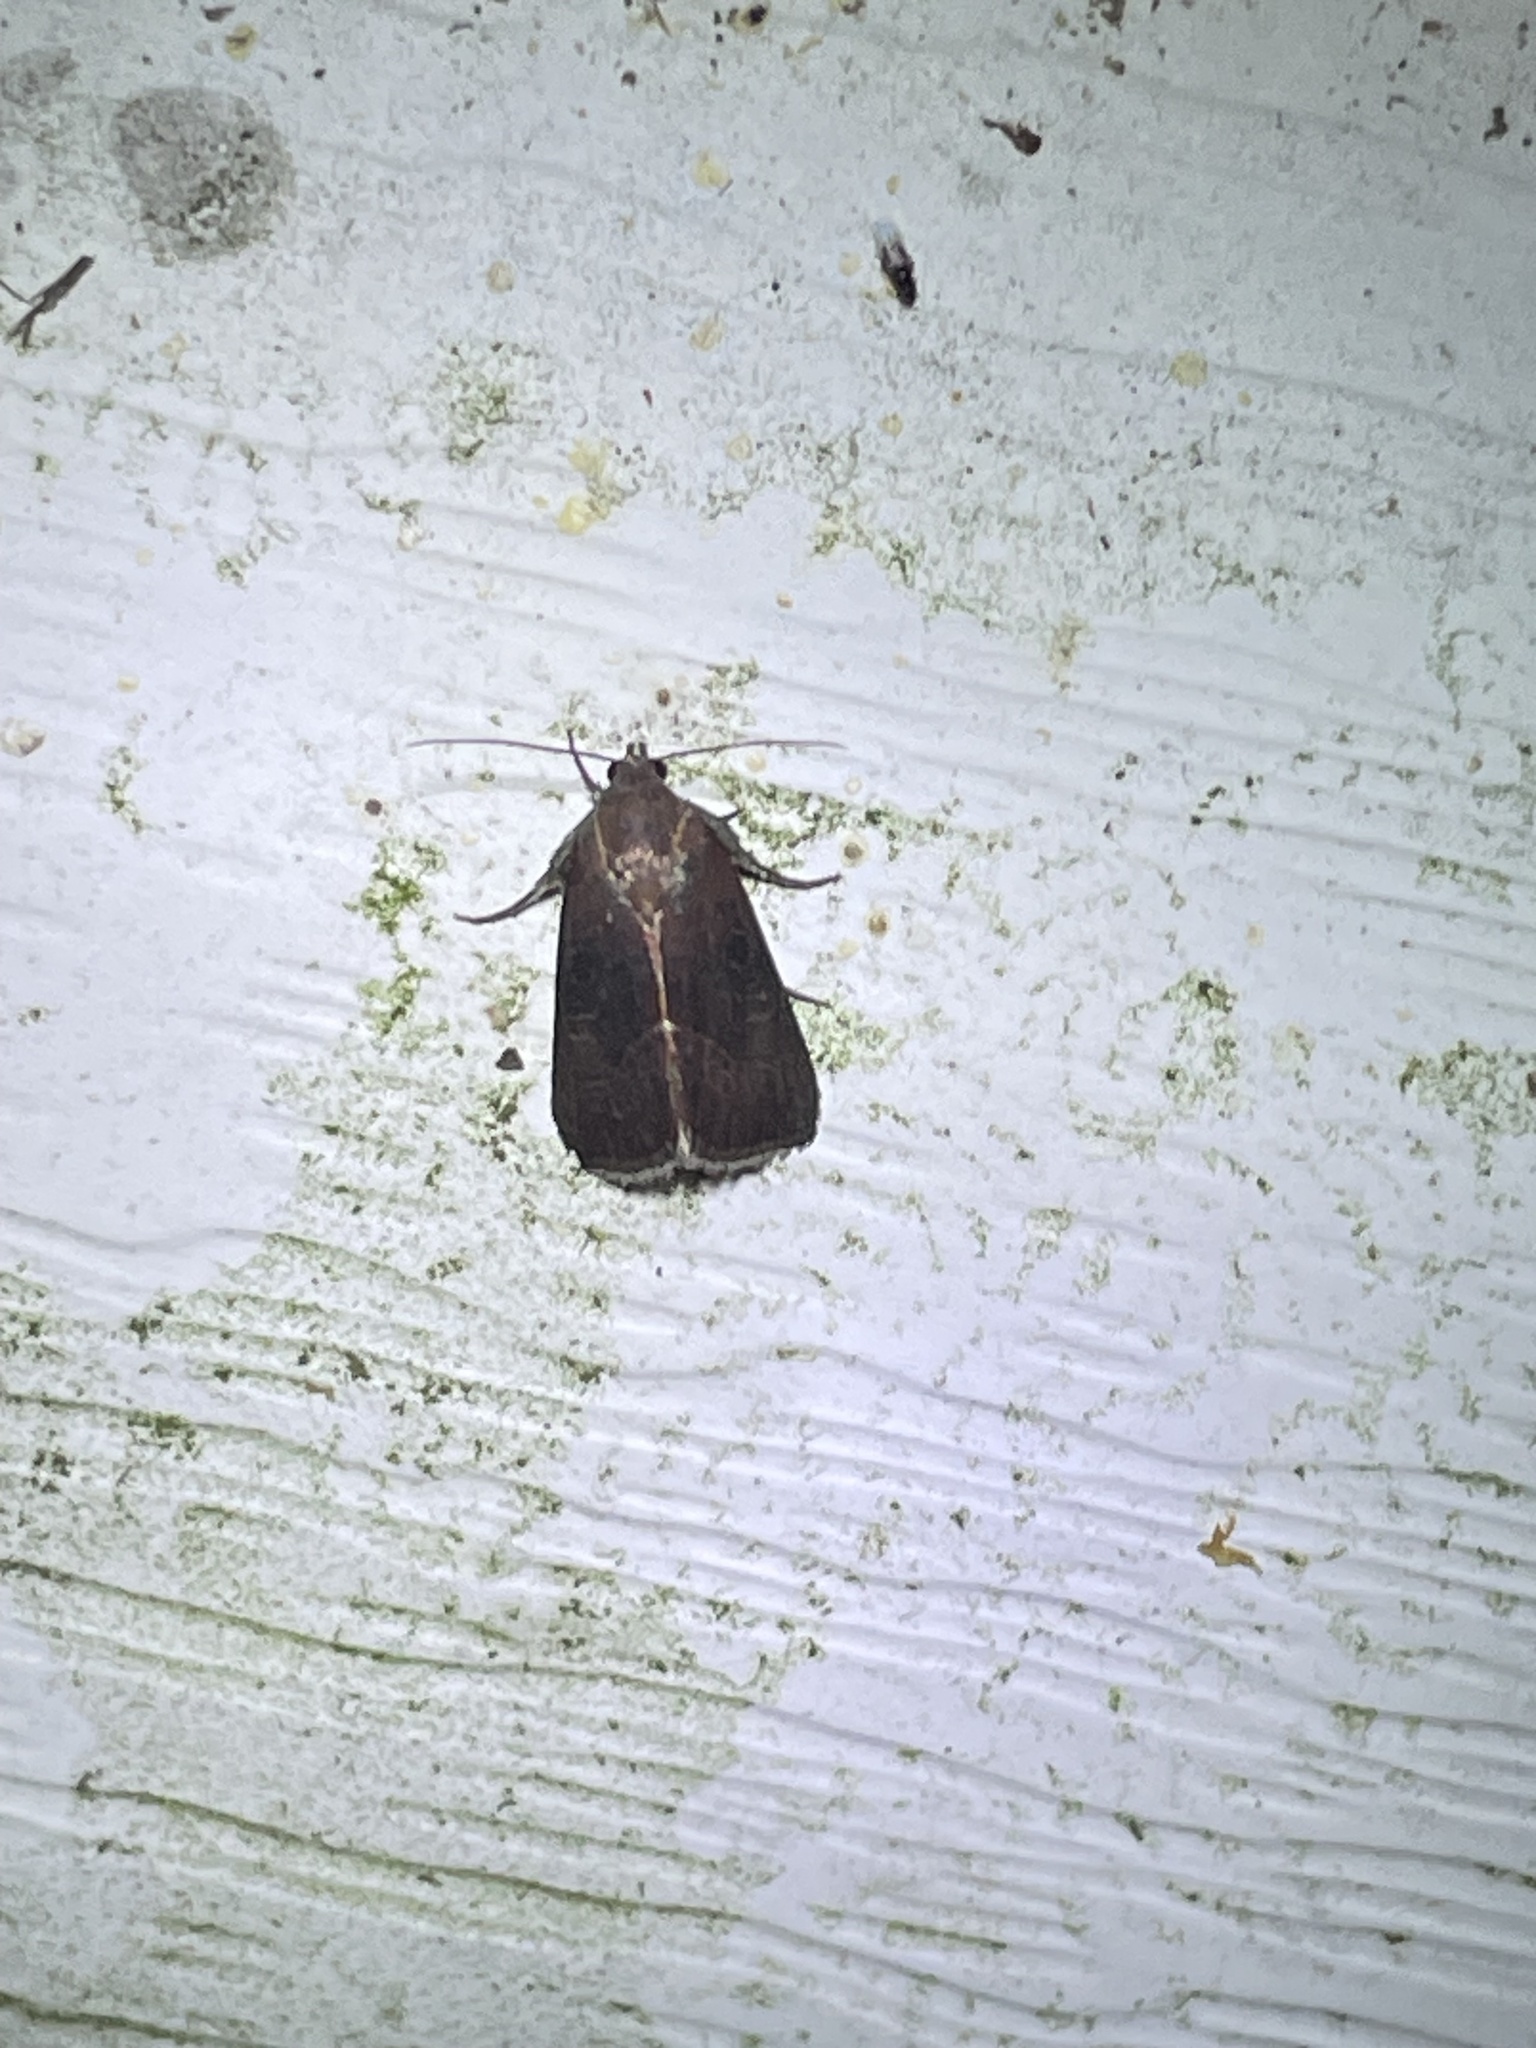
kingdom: Animalia
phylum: Arthropoda
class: Insecta
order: Lepidoptera
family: Noctuidae
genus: Galgula
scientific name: Galgula partita
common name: Wedgeling
